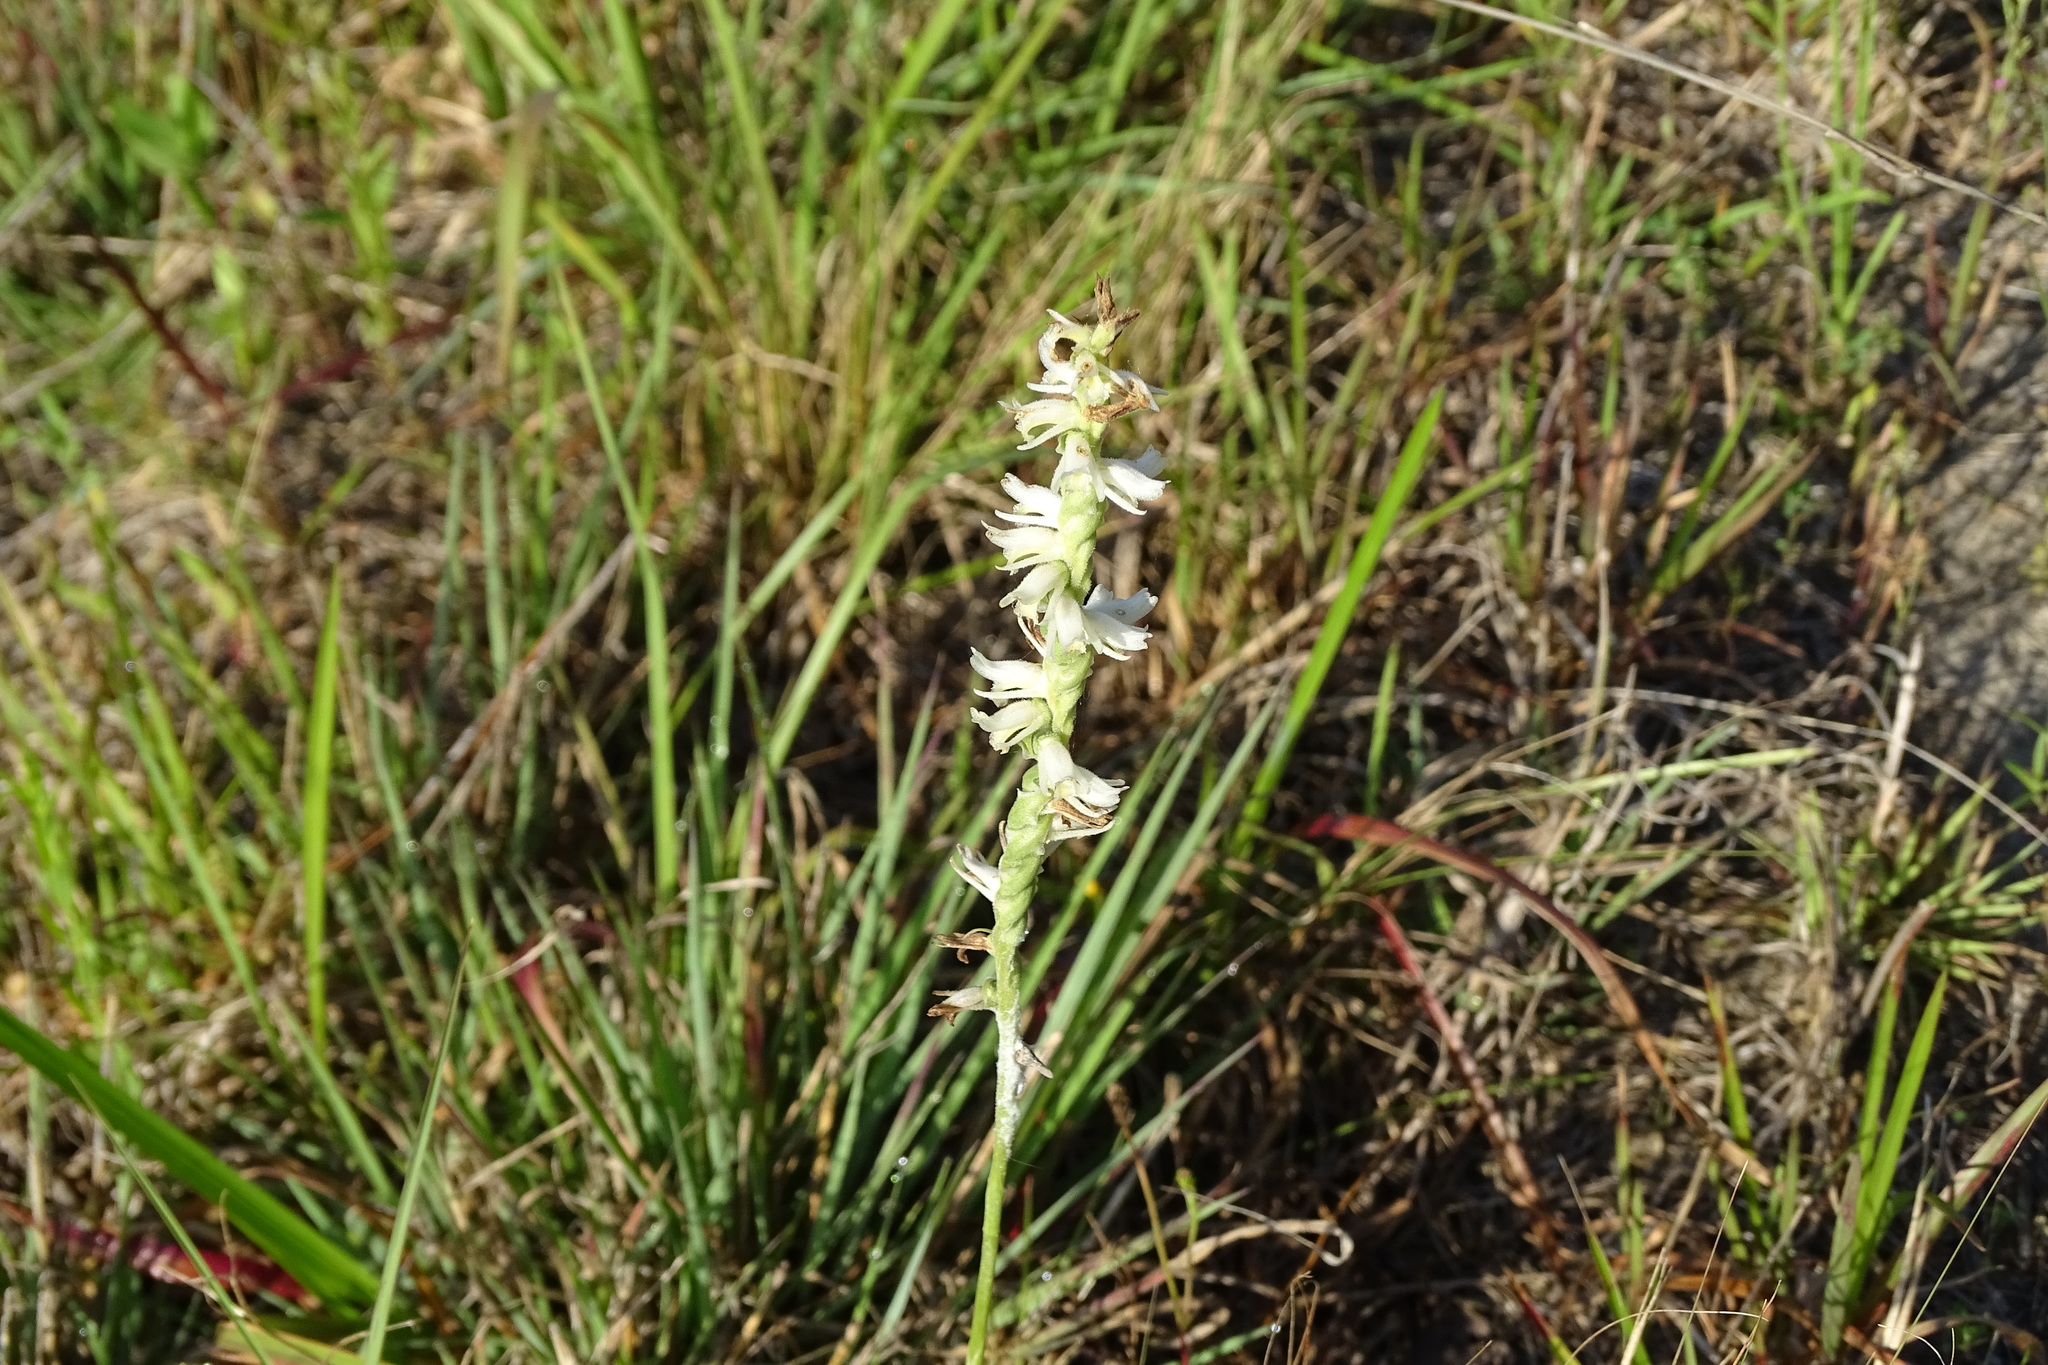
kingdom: Plantae
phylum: Tracheophyta
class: Liliopsida
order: Asparagales
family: Orchidaceae
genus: Spiranthes
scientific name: Spiranthes vernalis
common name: Spring ladies'-tresses
